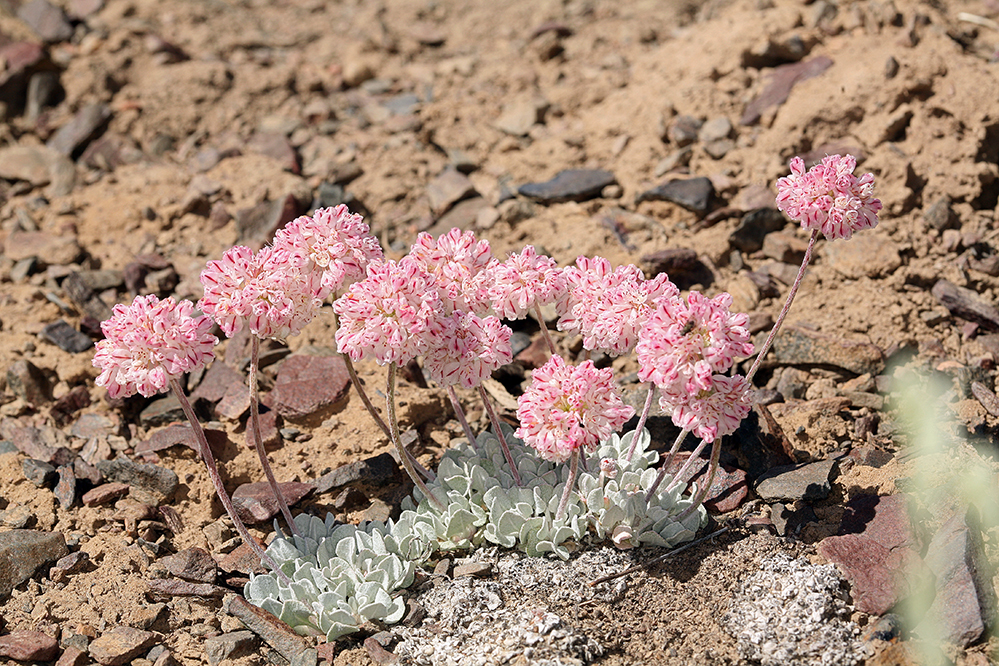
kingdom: Plantae
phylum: Tracheophyta
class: Magnoliopsida
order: Caryophyllales
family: Polygonaceae
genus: Eriogonum
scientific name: Eriogonum ovalifolium
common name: Cushion buckwheat
